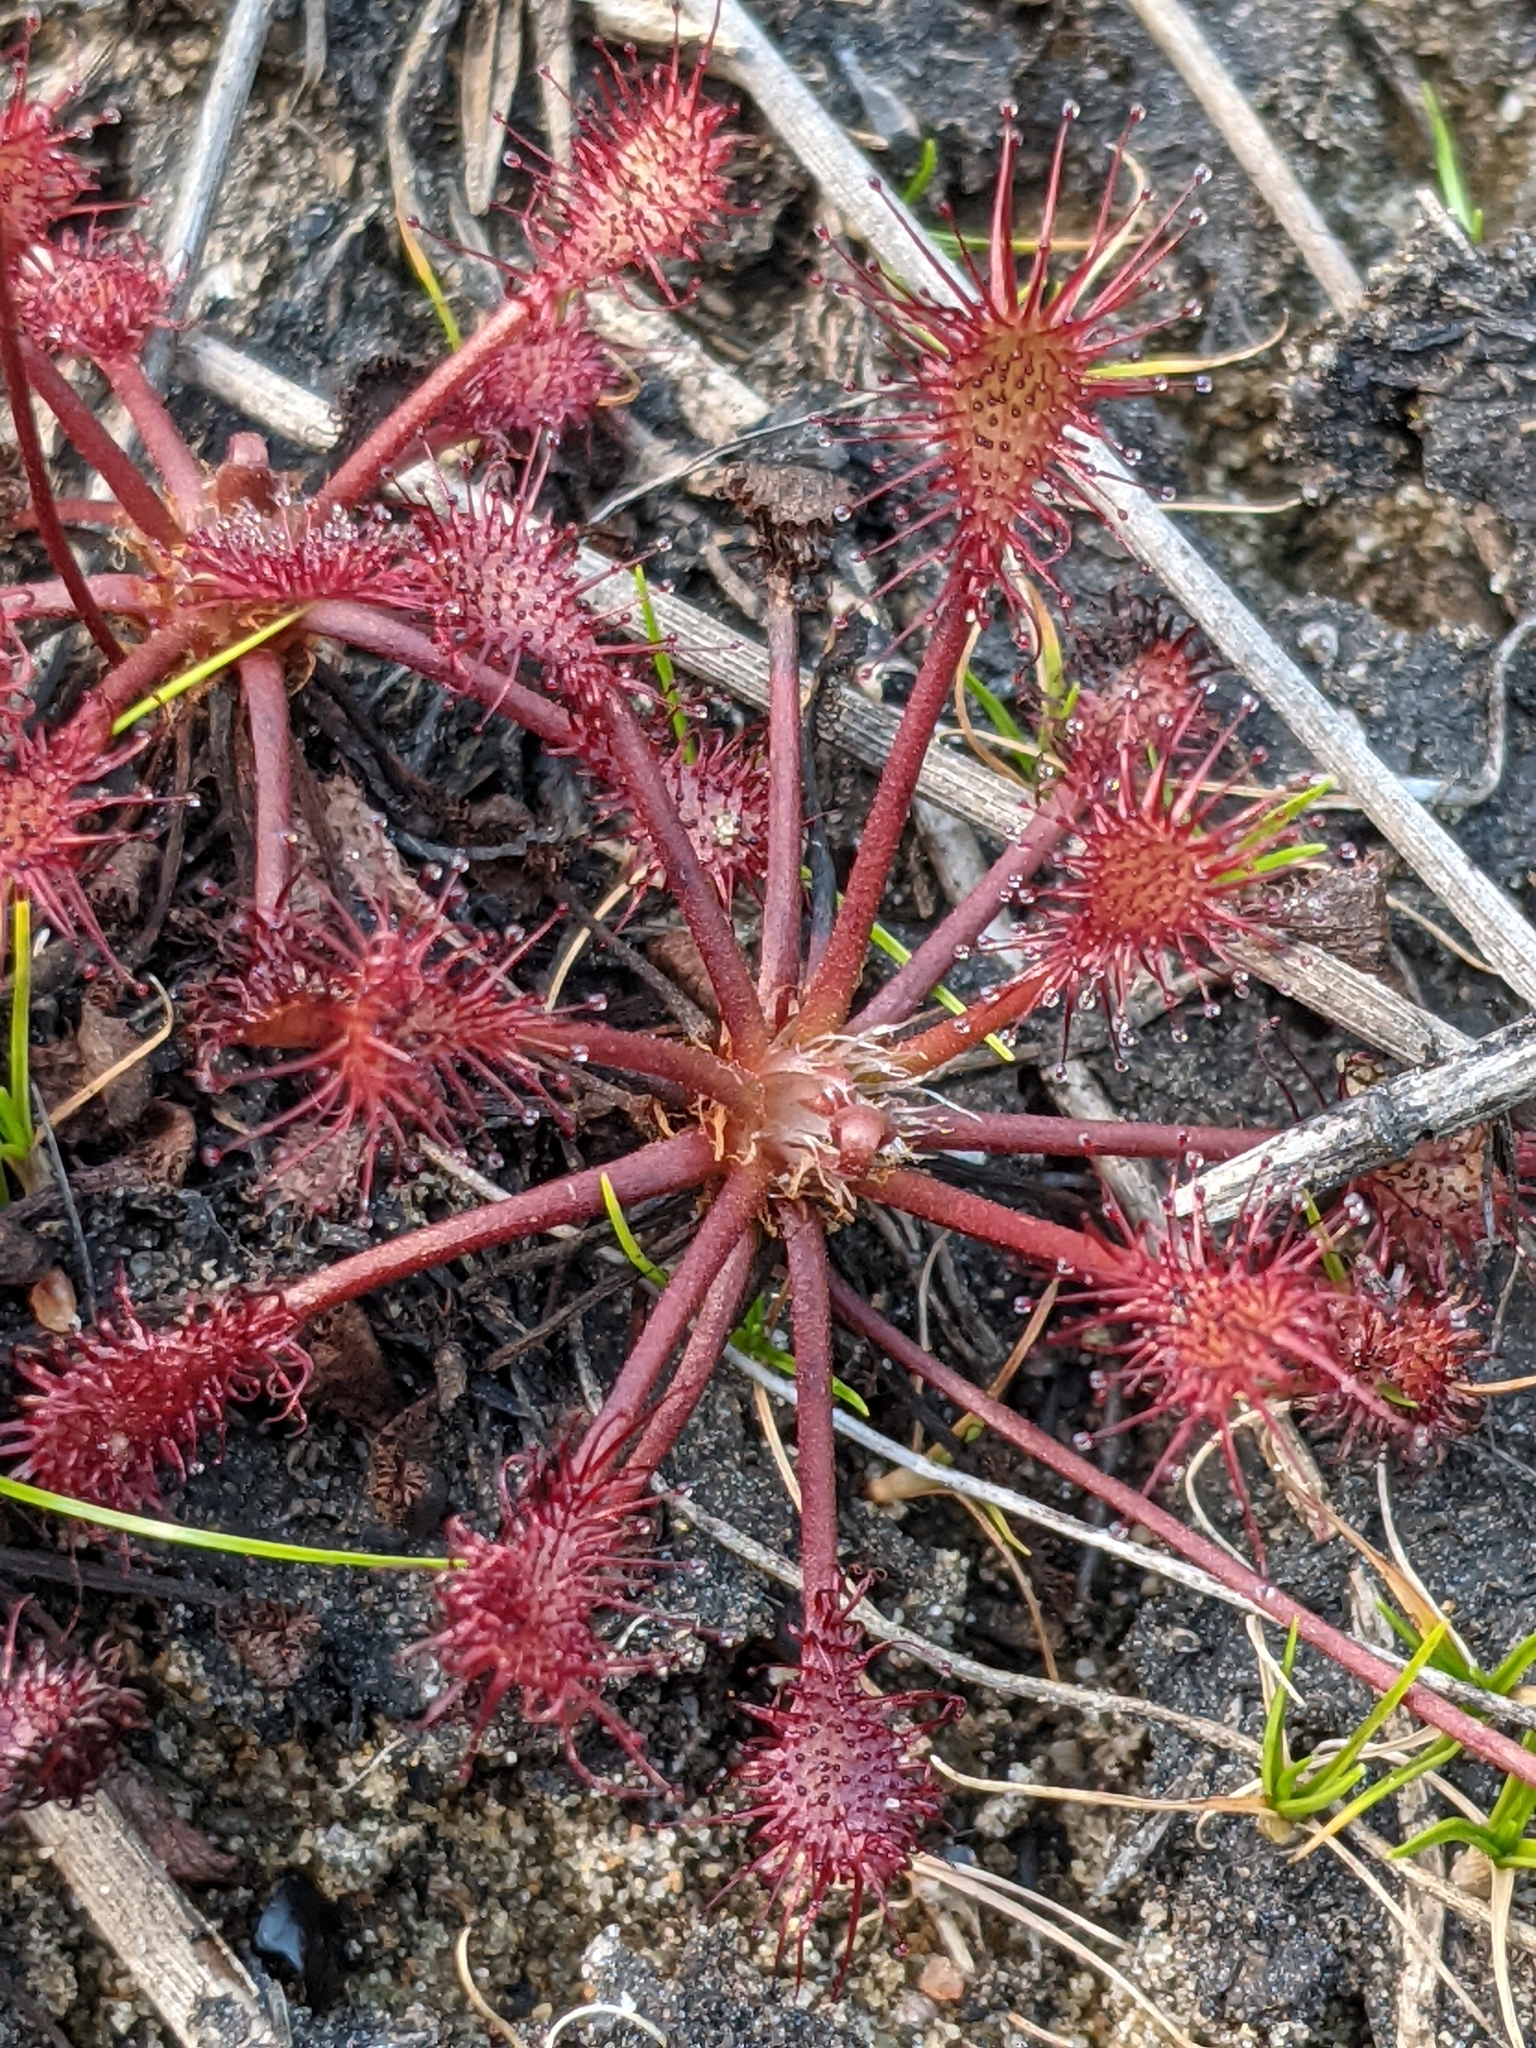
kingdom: Plantae
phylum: Tracheophyta
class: Magnoliopsida
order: Caryophyllales
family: Droseraceae
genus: Drosera
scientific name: Drosera intermedia
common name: Oblong-leaved sundew
